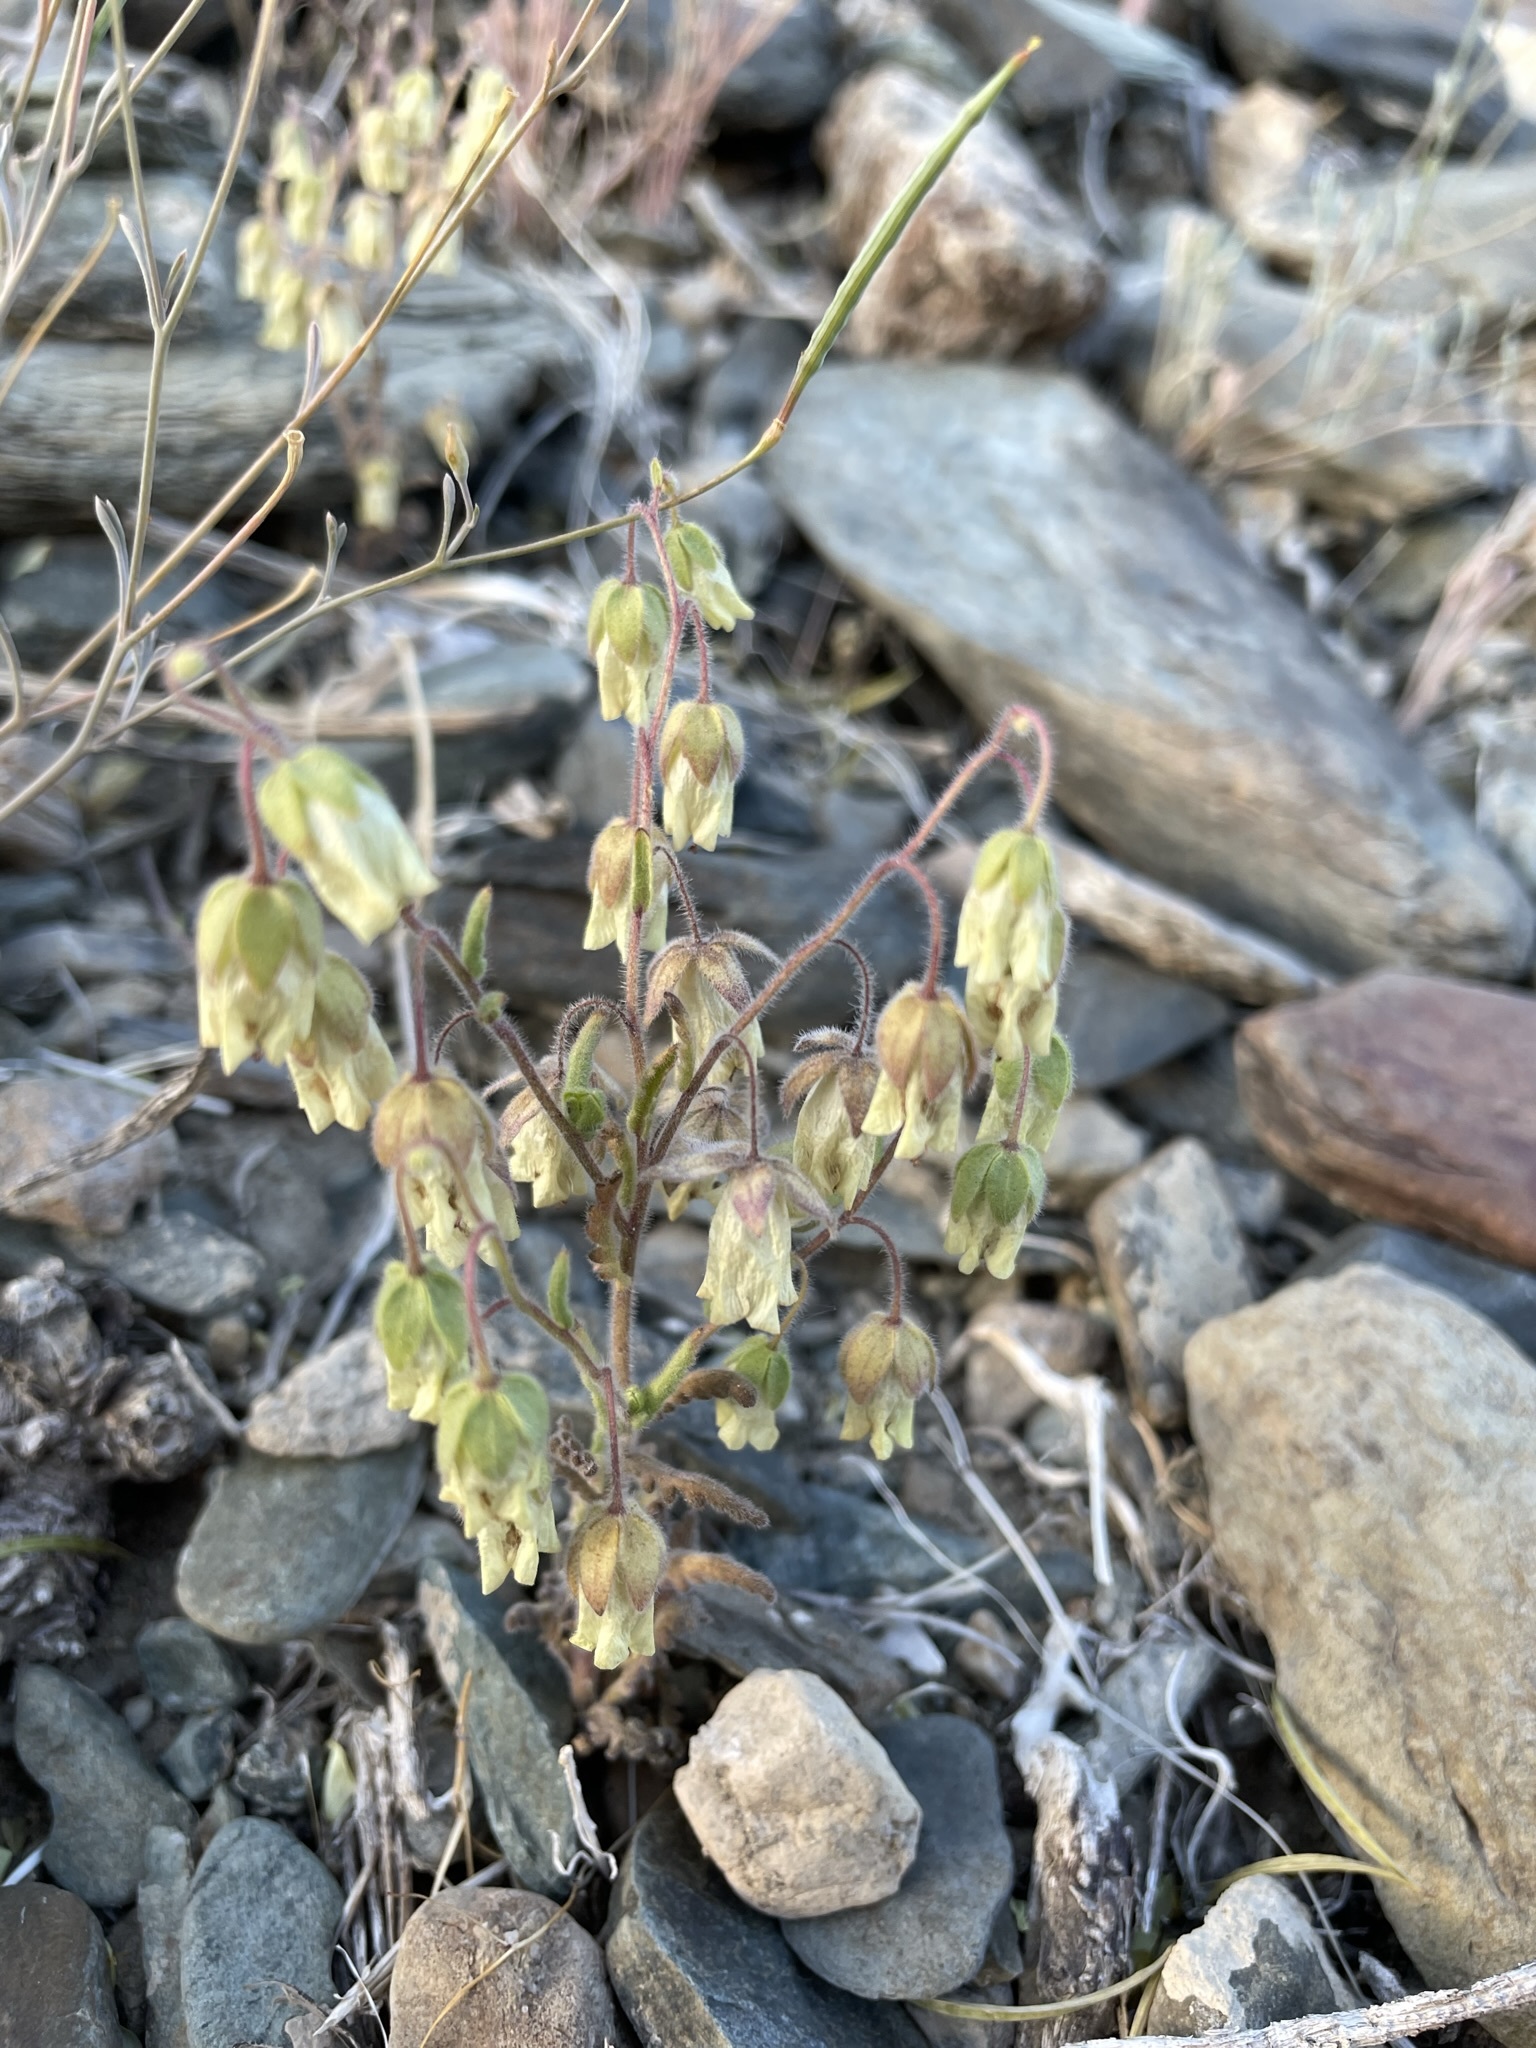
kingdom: Plantae
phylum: Tracheophyta
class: Magnoliopsida
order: Boraginales
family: Hydrophyllaceae
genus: Emmenanthe
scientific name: Emmenanthe penduliflora
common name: Whispering-bells
